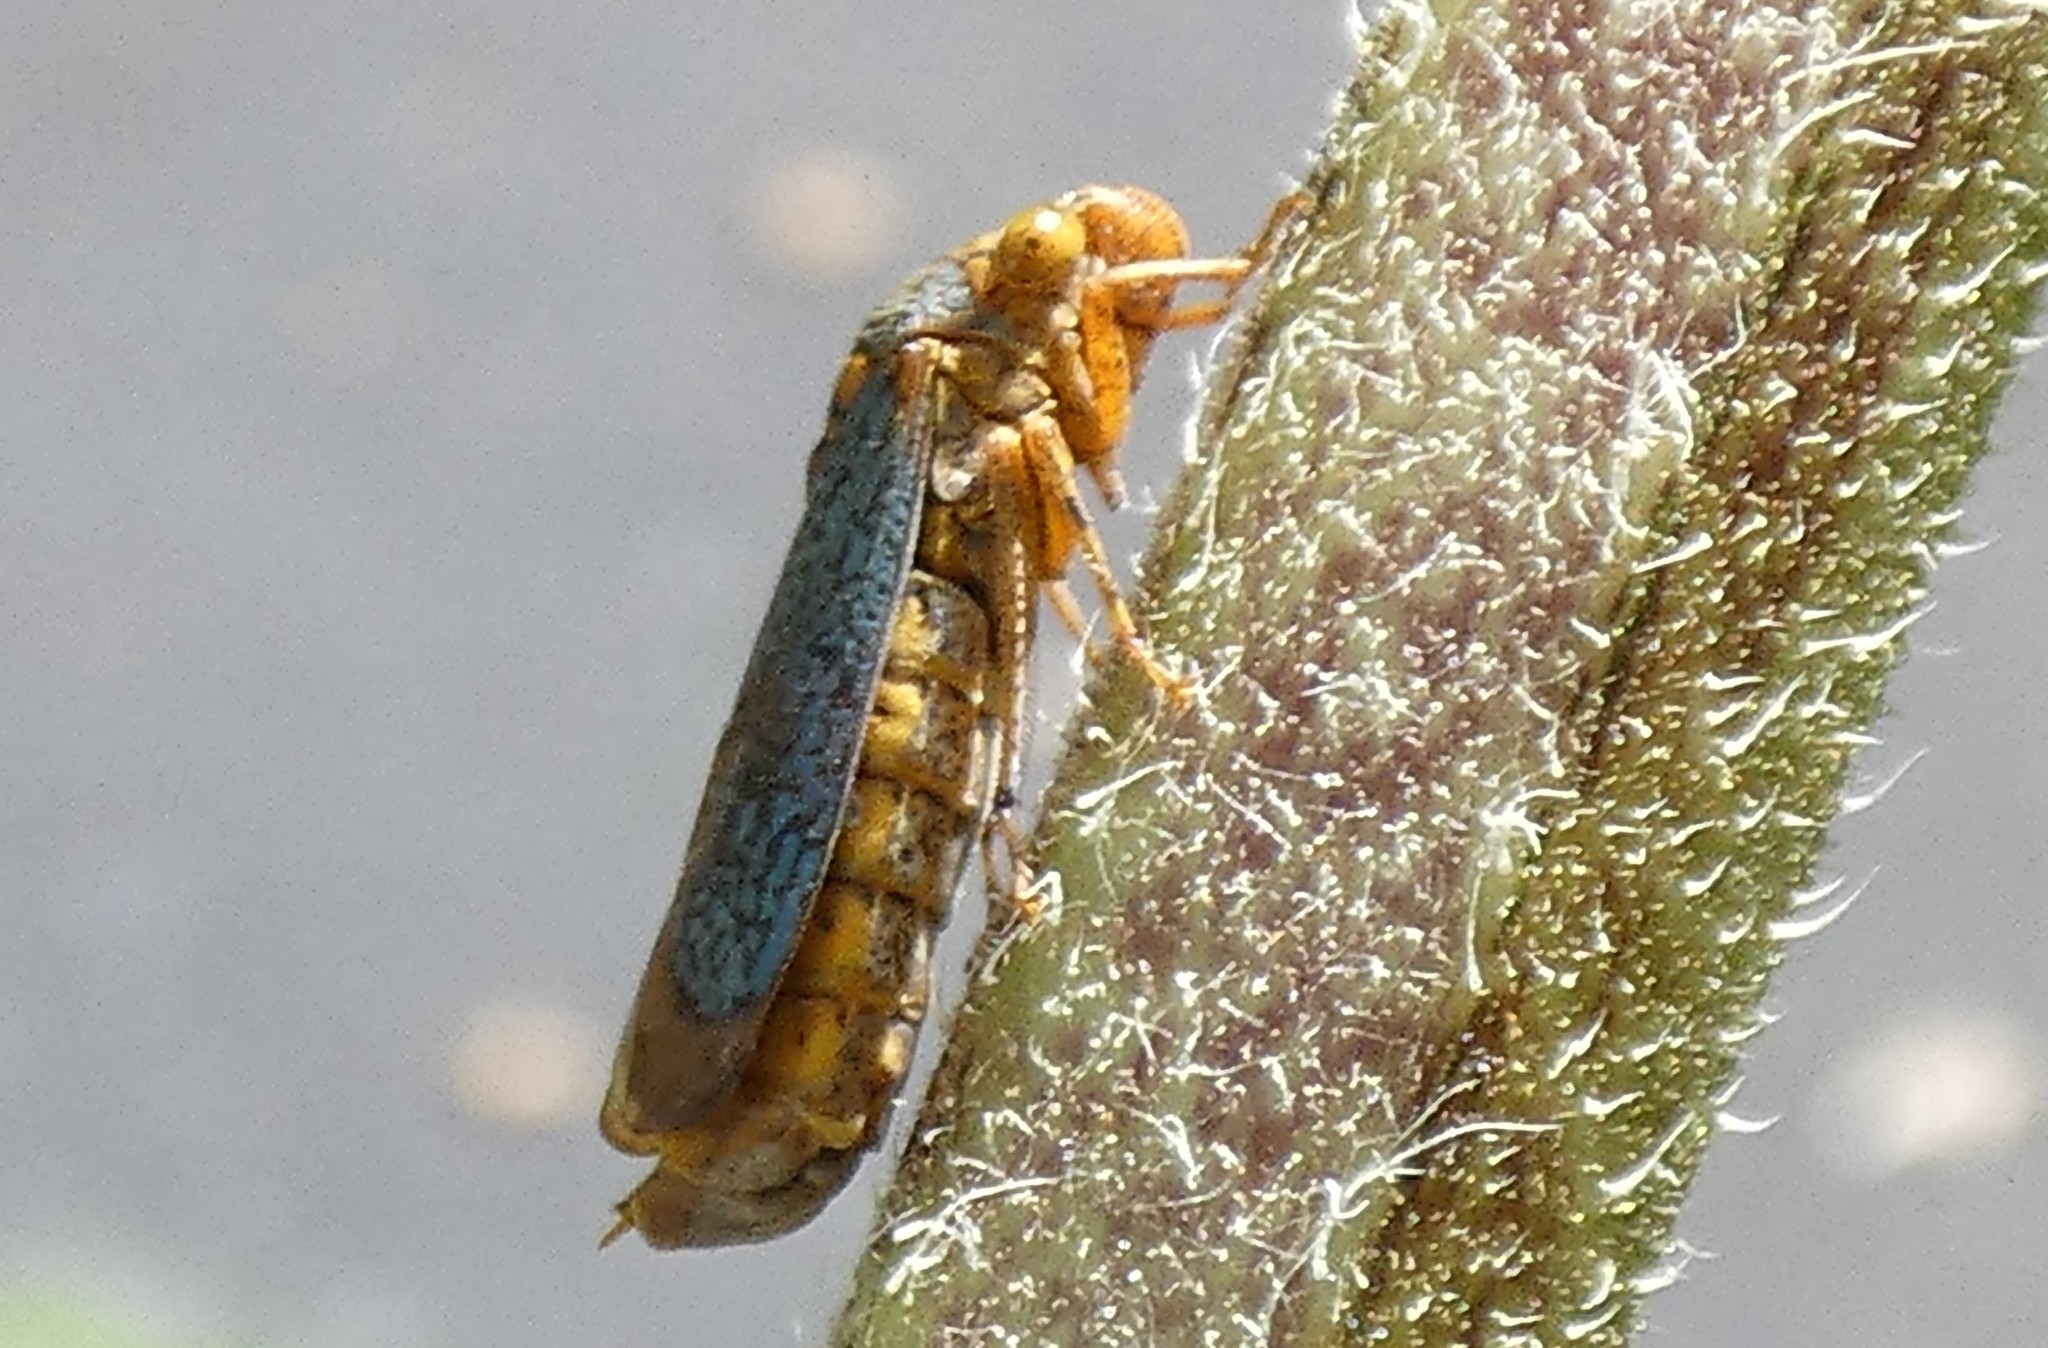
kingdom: Animalia
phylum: Arthropoda
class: Insecta
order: Hemiptera
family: Cicadellidae
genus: Oncometopia
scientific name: Oncometopia orbona
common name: Broad-headed sharpshooter
